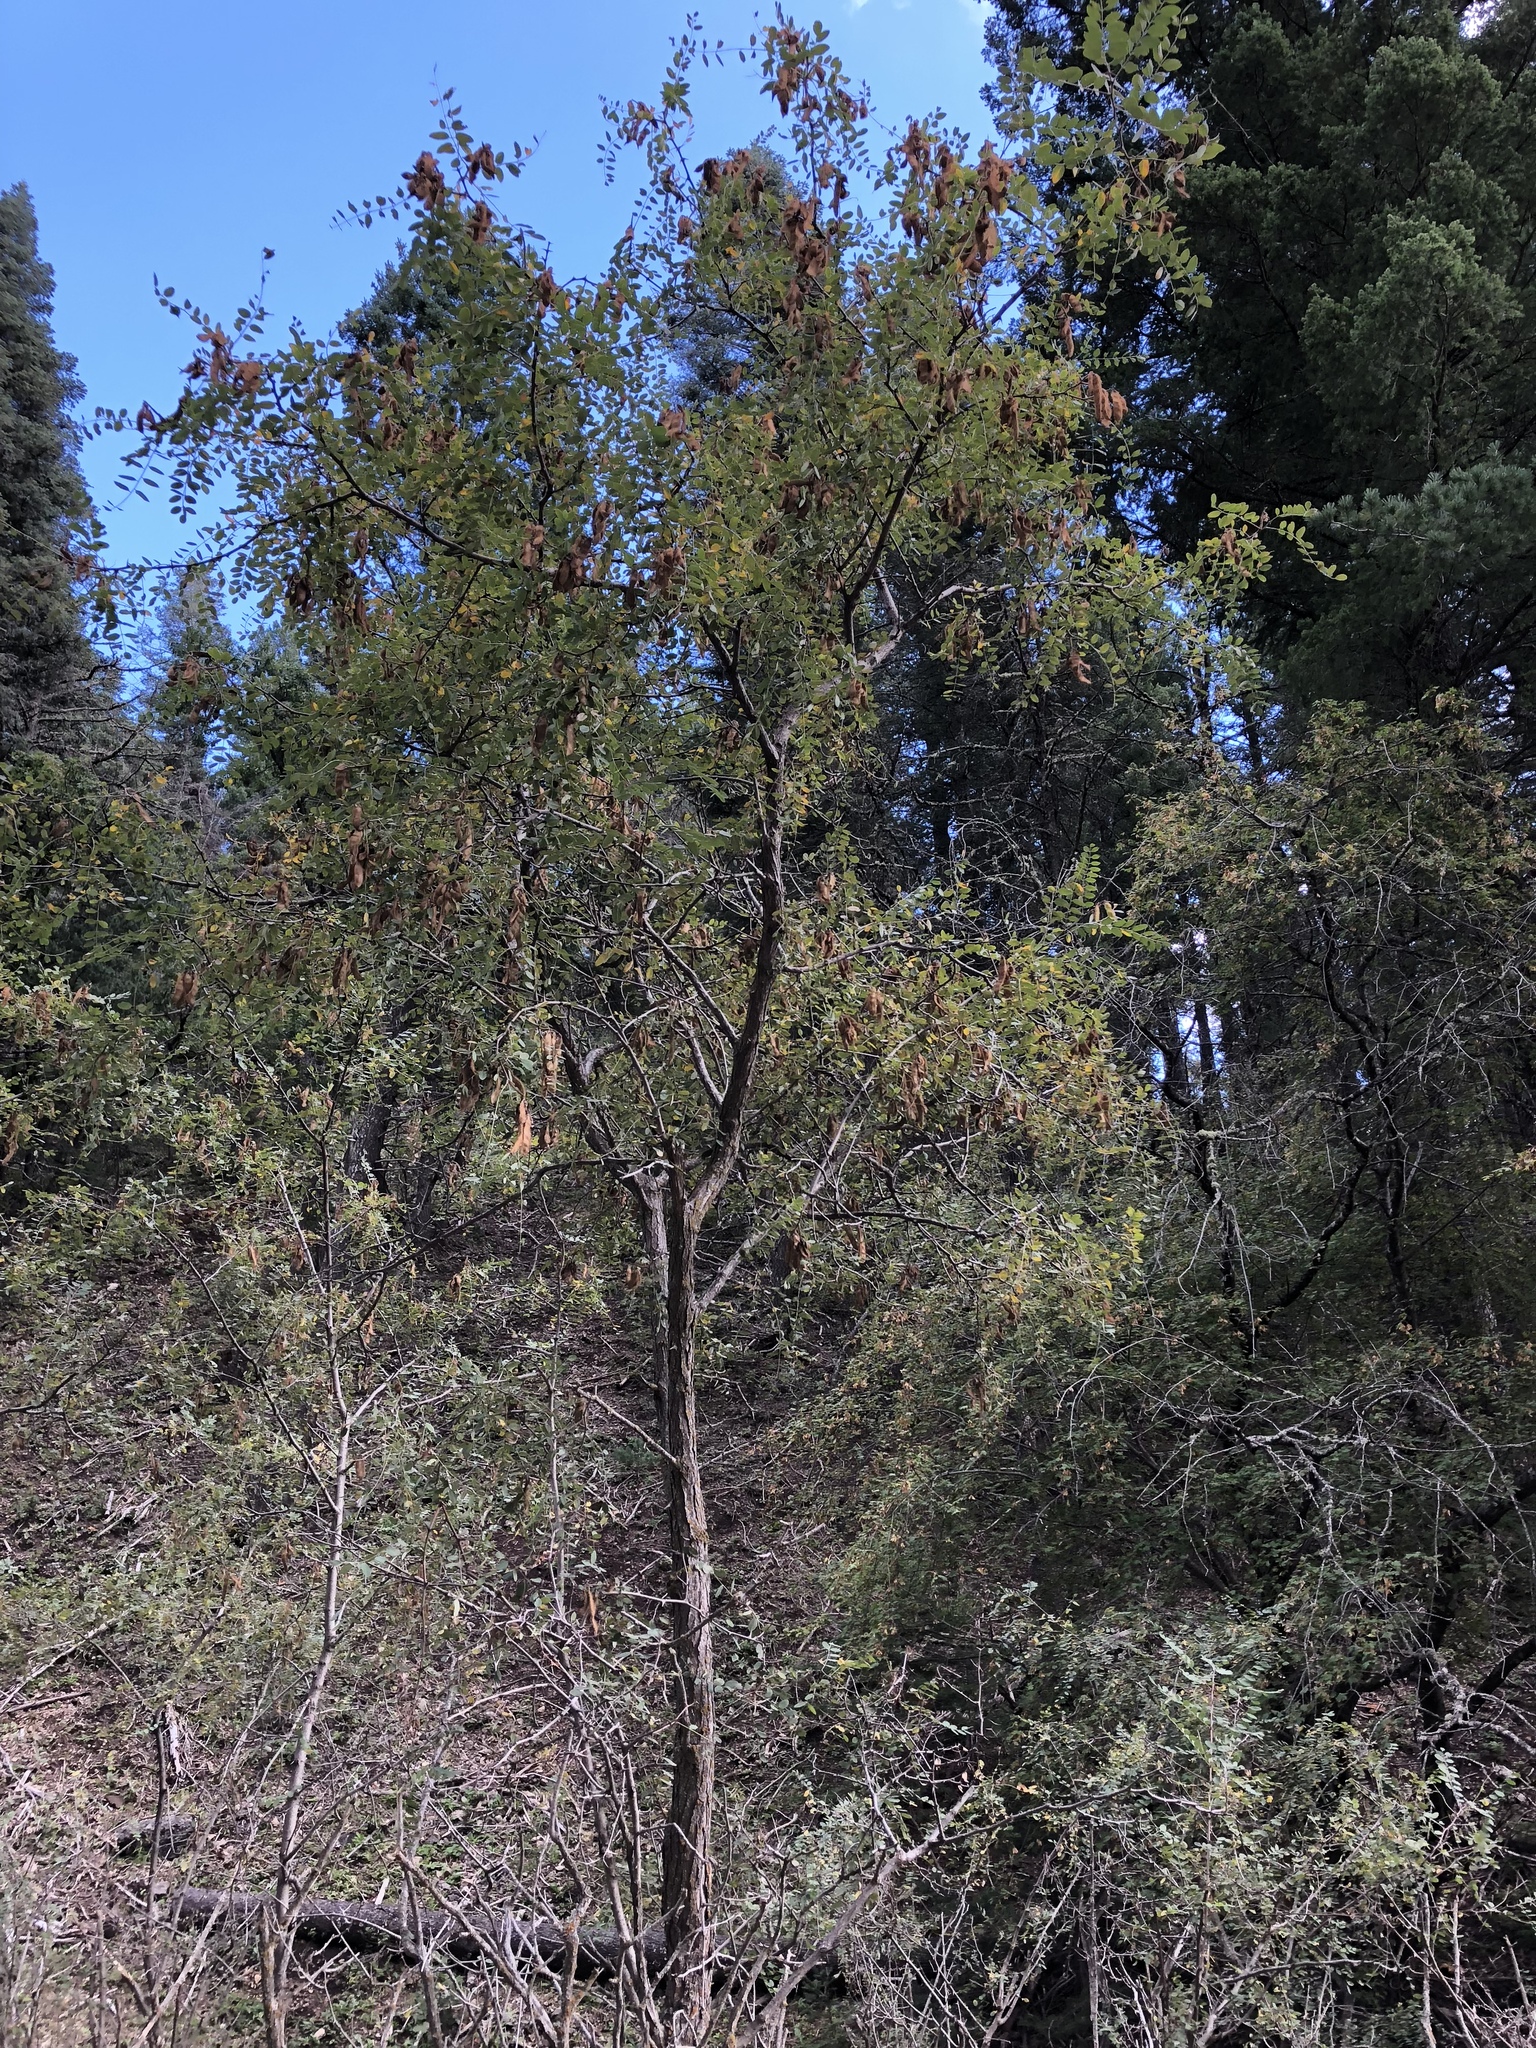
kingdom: Plantae
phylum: Tracheophyta
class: Magnoliopsida
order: Fabales
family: Fabaceae
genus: Robinia
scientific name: Robinia neomexicana
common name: New mexico locust
